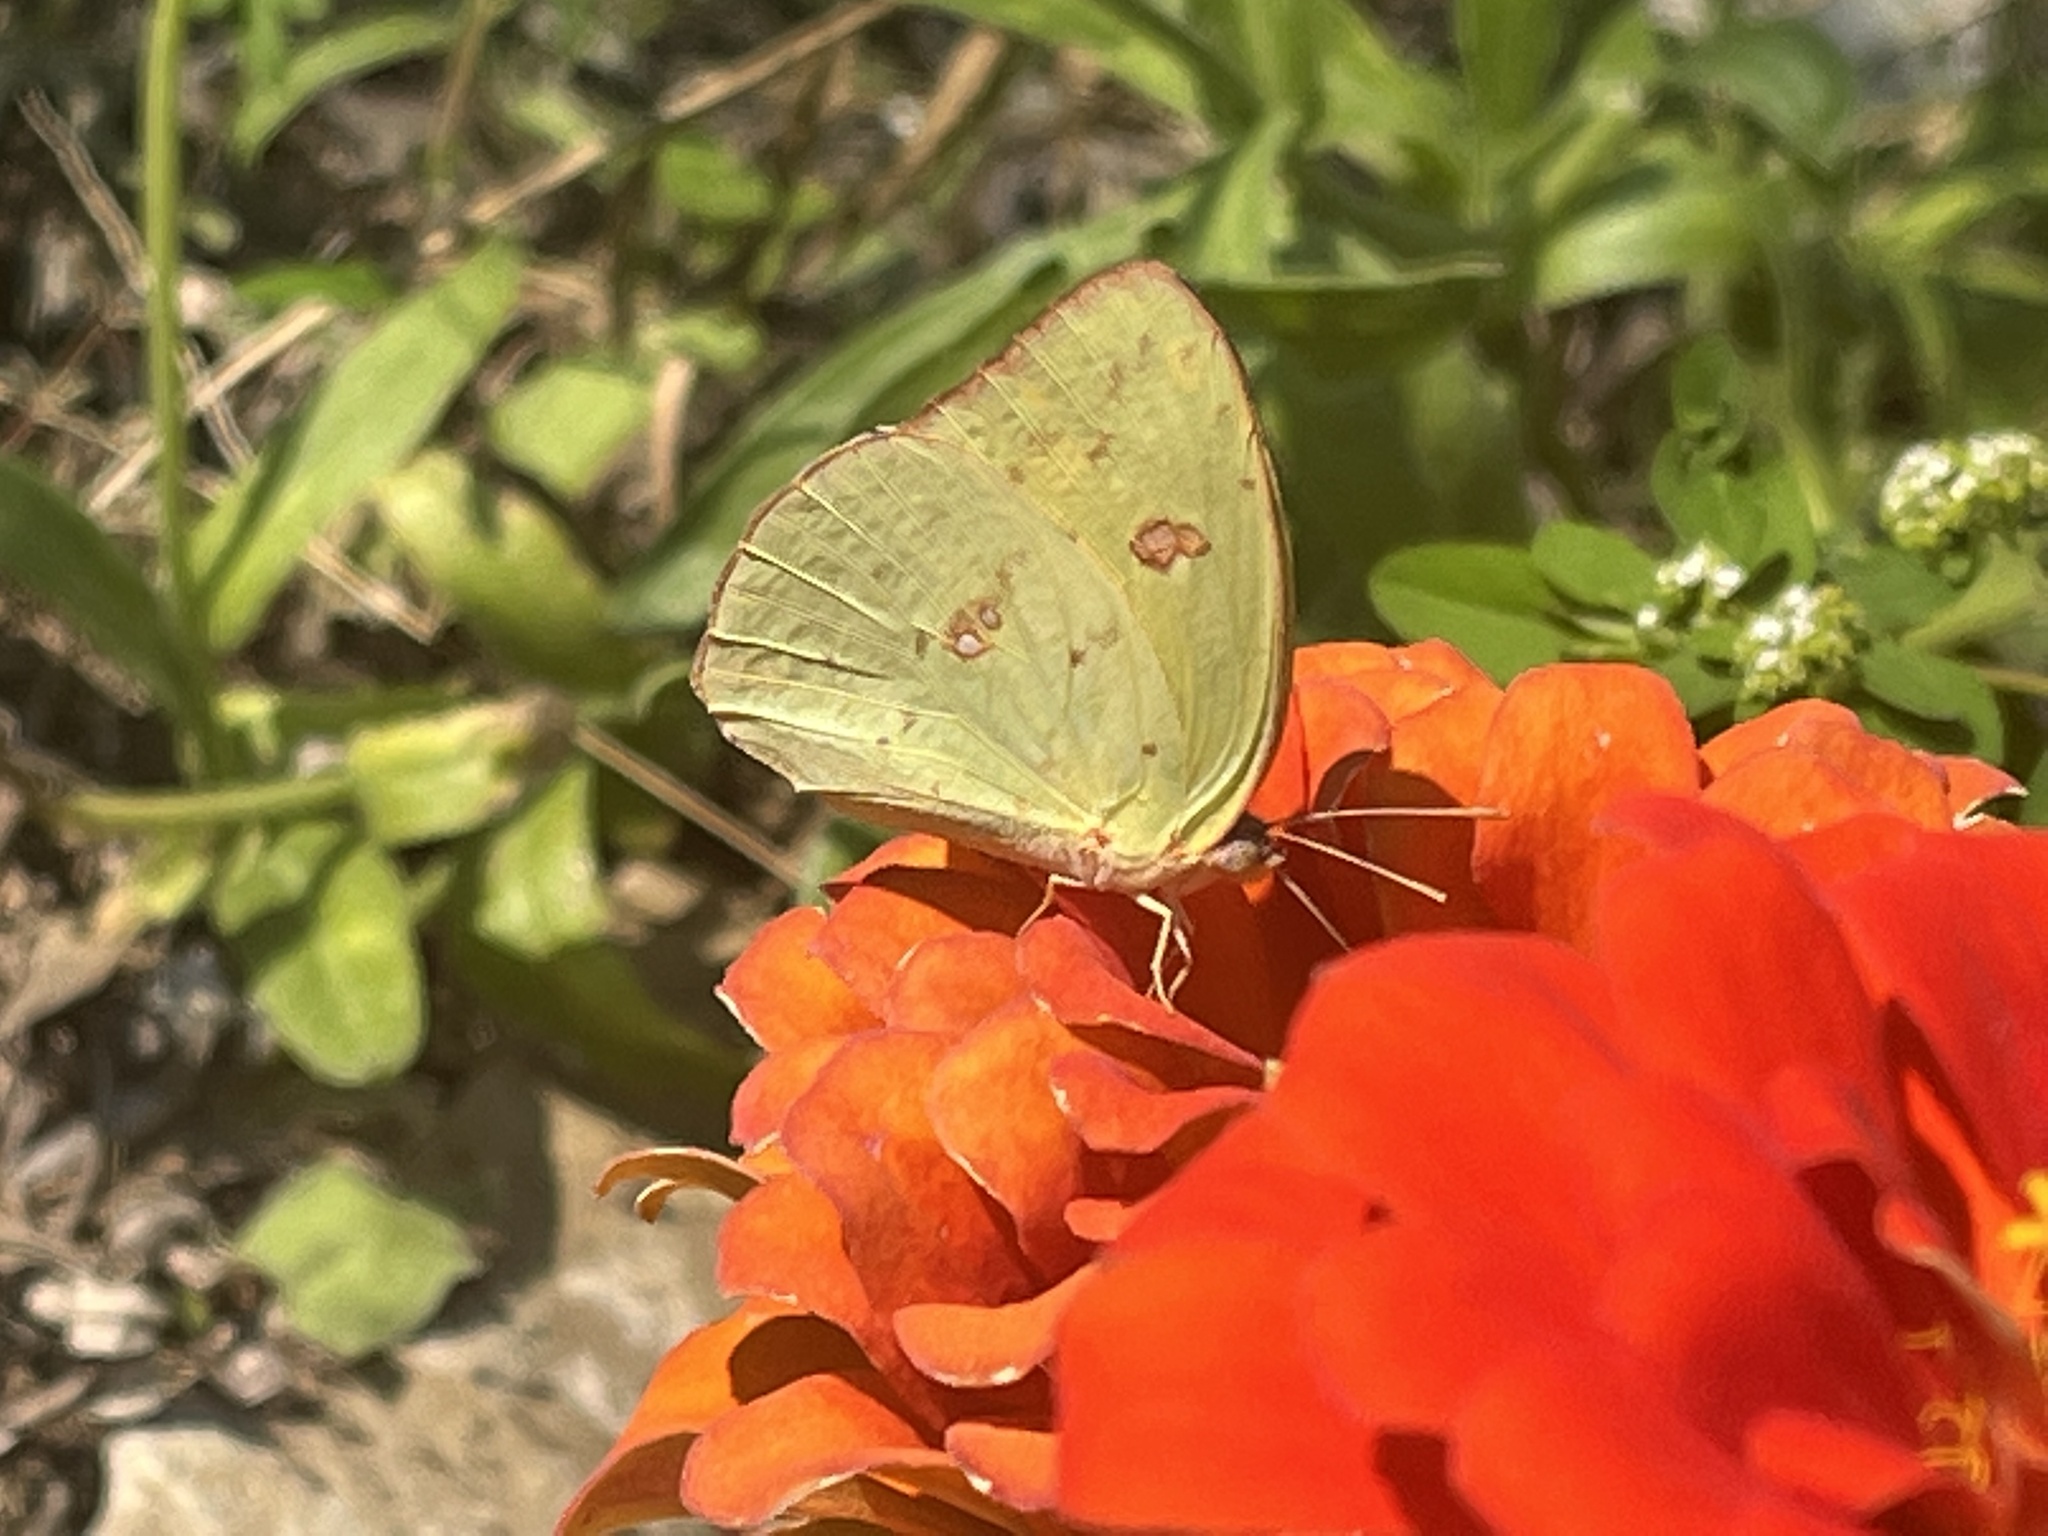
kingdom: Animalia
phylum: Arthropoda
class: Insecta
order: Lepidoptera
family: Pieridae
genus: Phoebis
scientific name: Phoebis sennae
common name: Cloudless sulphur
